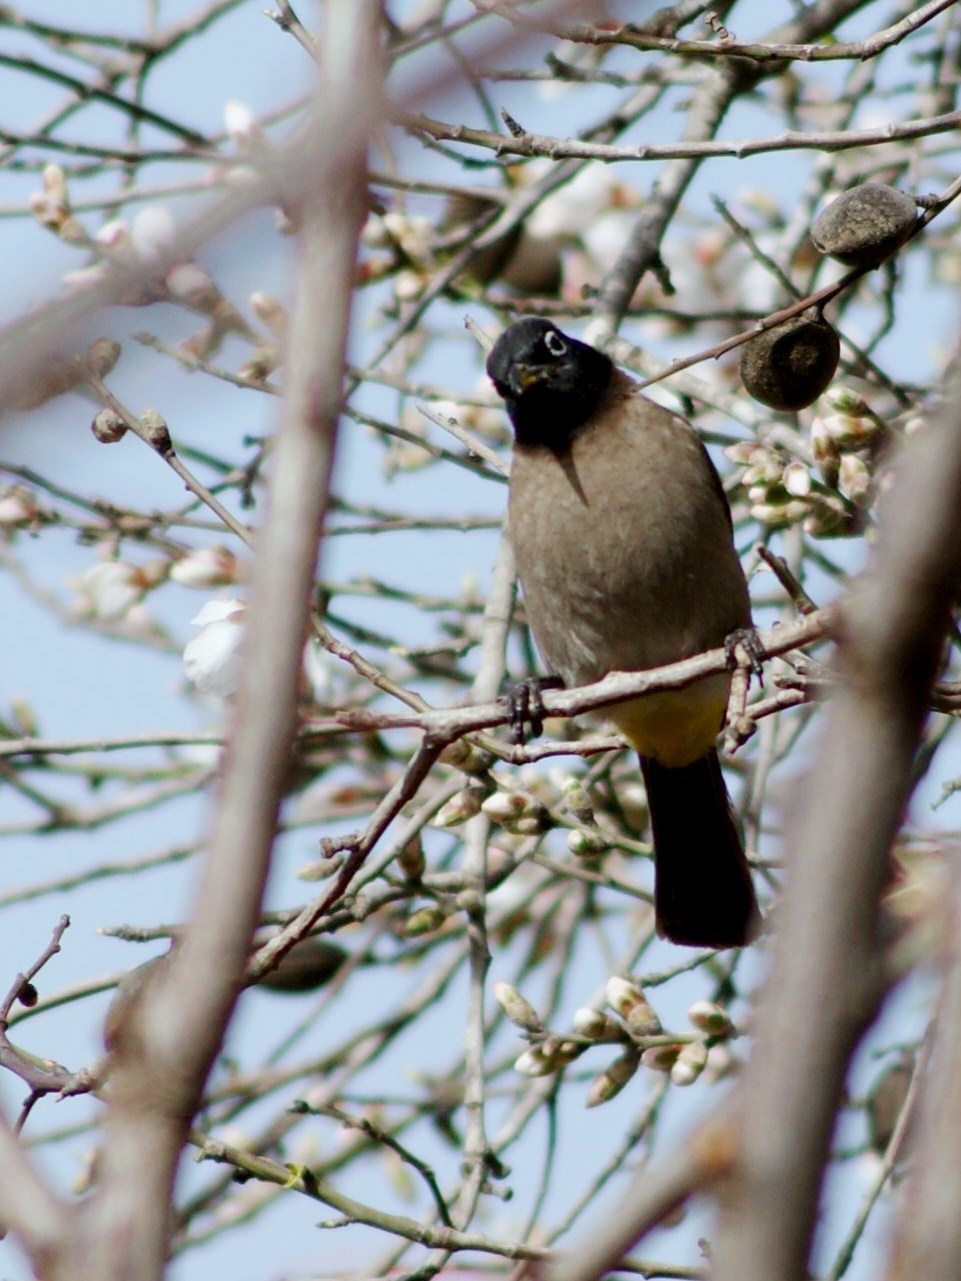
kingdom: Animalia
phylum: Chordata
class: Aves
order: Passeriformes
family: Pycnonotidae
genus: Pycnonotus
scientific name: Pycnonotus xanthopygos
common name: White-spectacled bulbul
